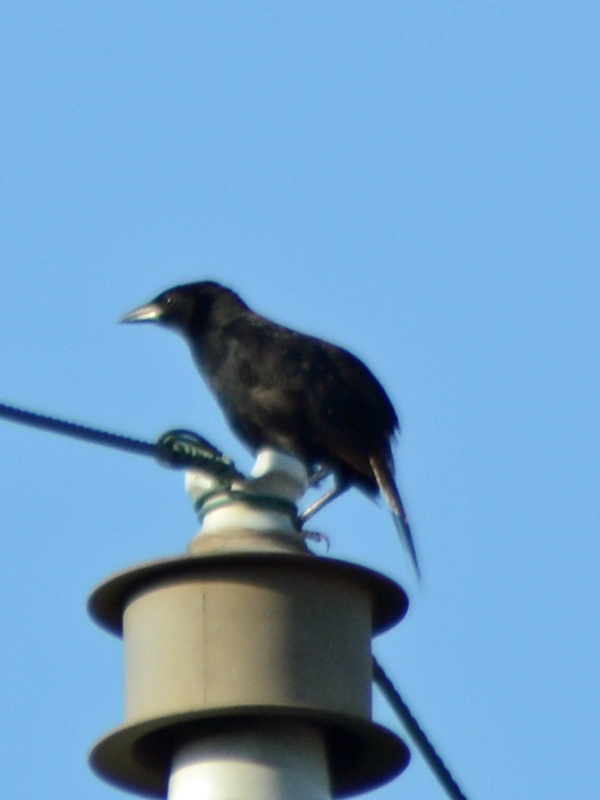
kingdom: Animalia
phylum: Chordata
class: Aves
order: Passeriformes
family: Icteridae
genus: Dives
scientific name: Dives dives
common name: Melodious blackbird
